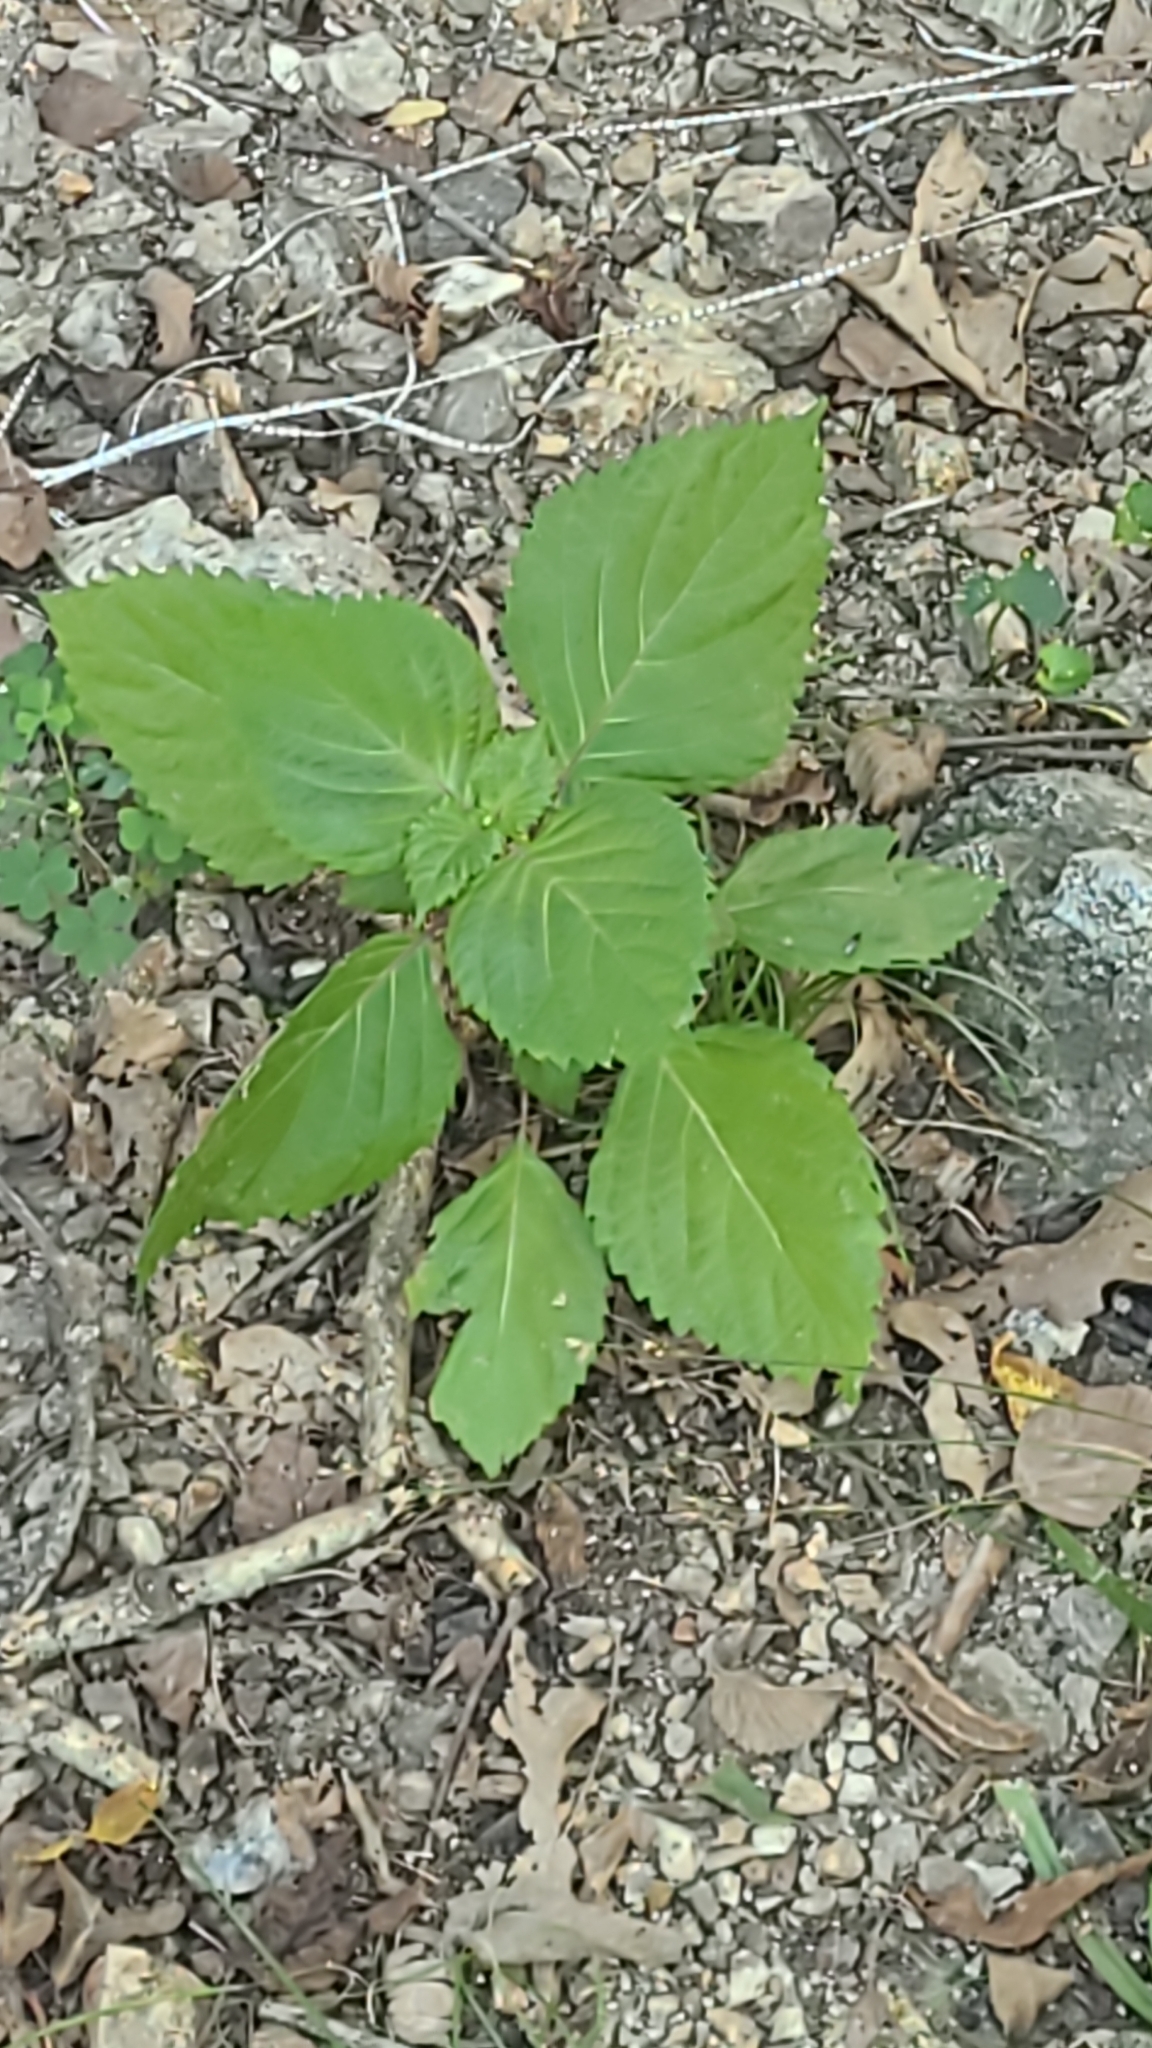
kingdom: Plantae
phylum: Tracheophyta
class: Magnoliopsida
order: Lamiales
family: Lamiaceae
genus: Perilla
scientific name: Perilla frutescens
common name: Perilla
